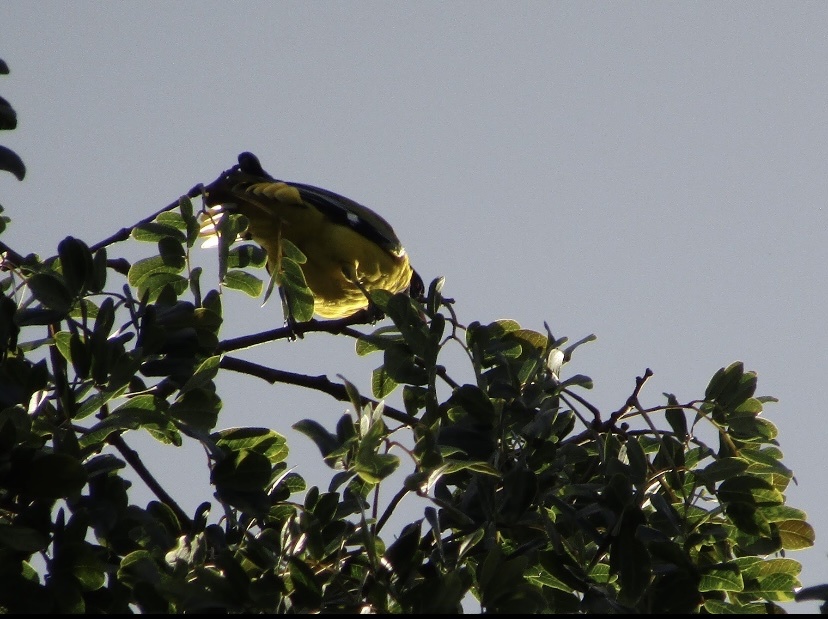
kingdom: Animalia
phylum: Chordata
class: Aves
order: Passeriformes
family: Oriolidae
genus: Oriolus
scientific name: Oriolus larvatus
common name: Black-headed oriole
